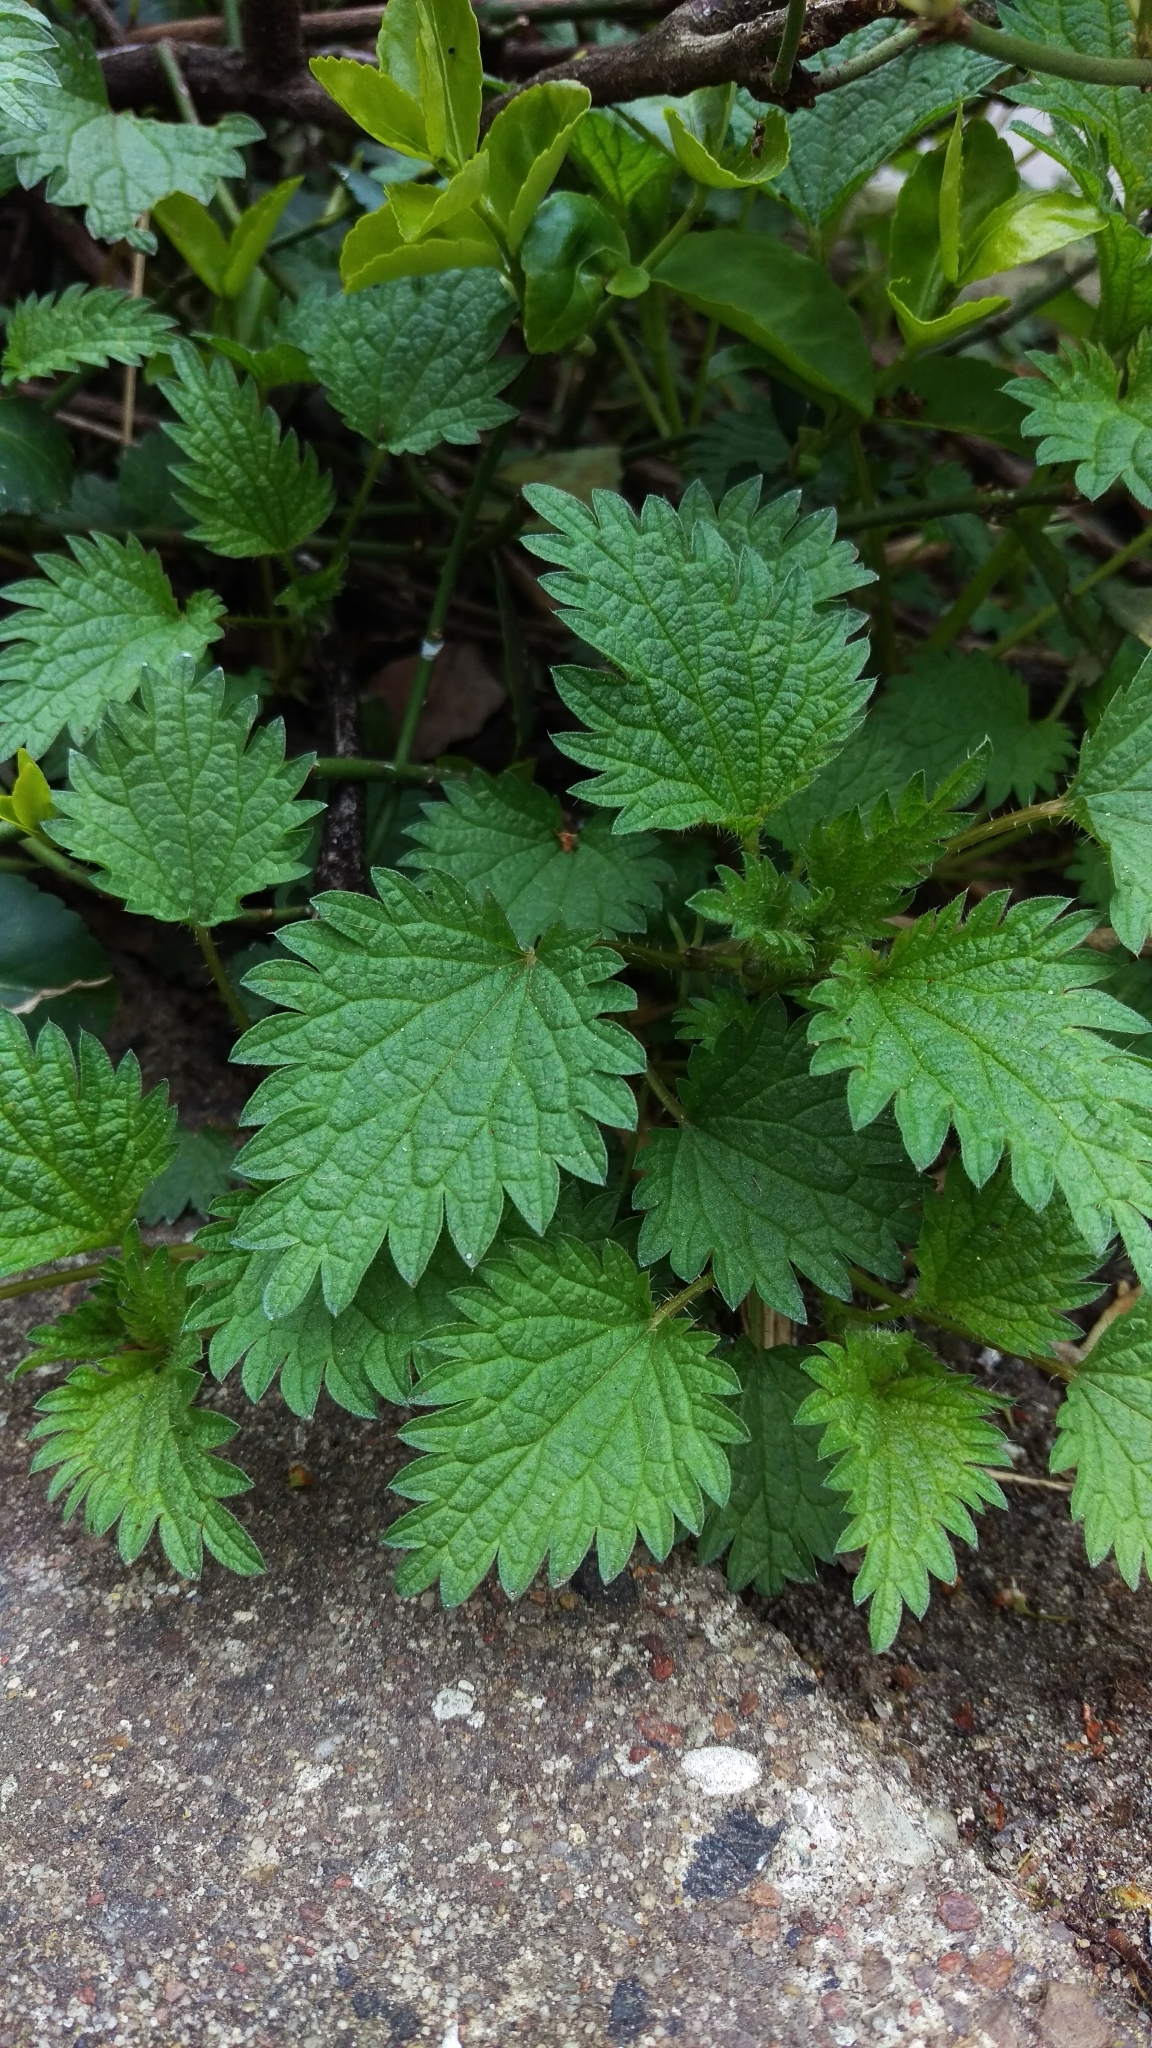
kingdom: Plantae
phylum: Tracheophyta
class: Magnoliopsida
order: Rosales
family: Urticaceae
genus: Urtica
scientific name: Urtica dioica
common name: Common nettle
